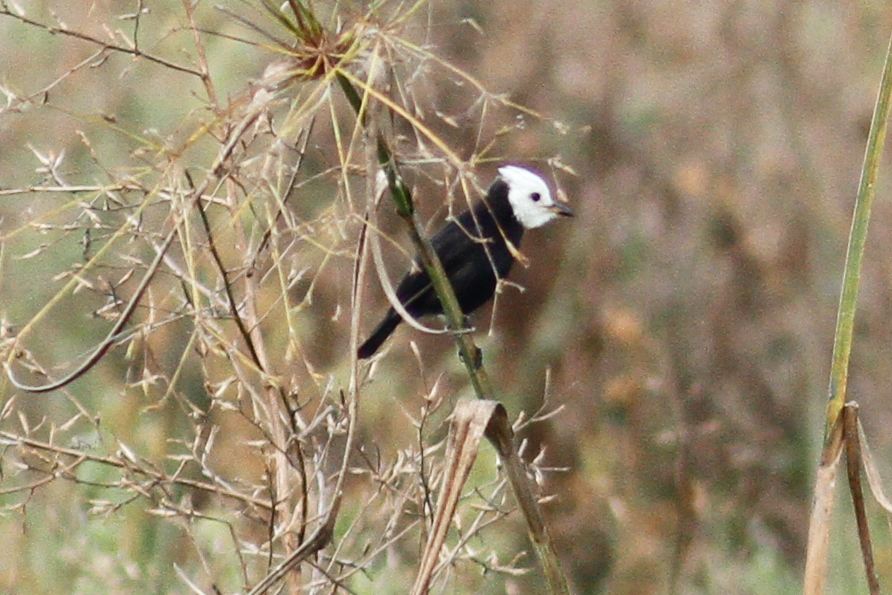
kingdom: Animalia
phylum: Chordata
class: Aves
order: Passeriformes
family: Tyrannidae
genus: Arundinicola
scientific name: Arundinicola leucocephala
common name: White-headed marsh tyrant
